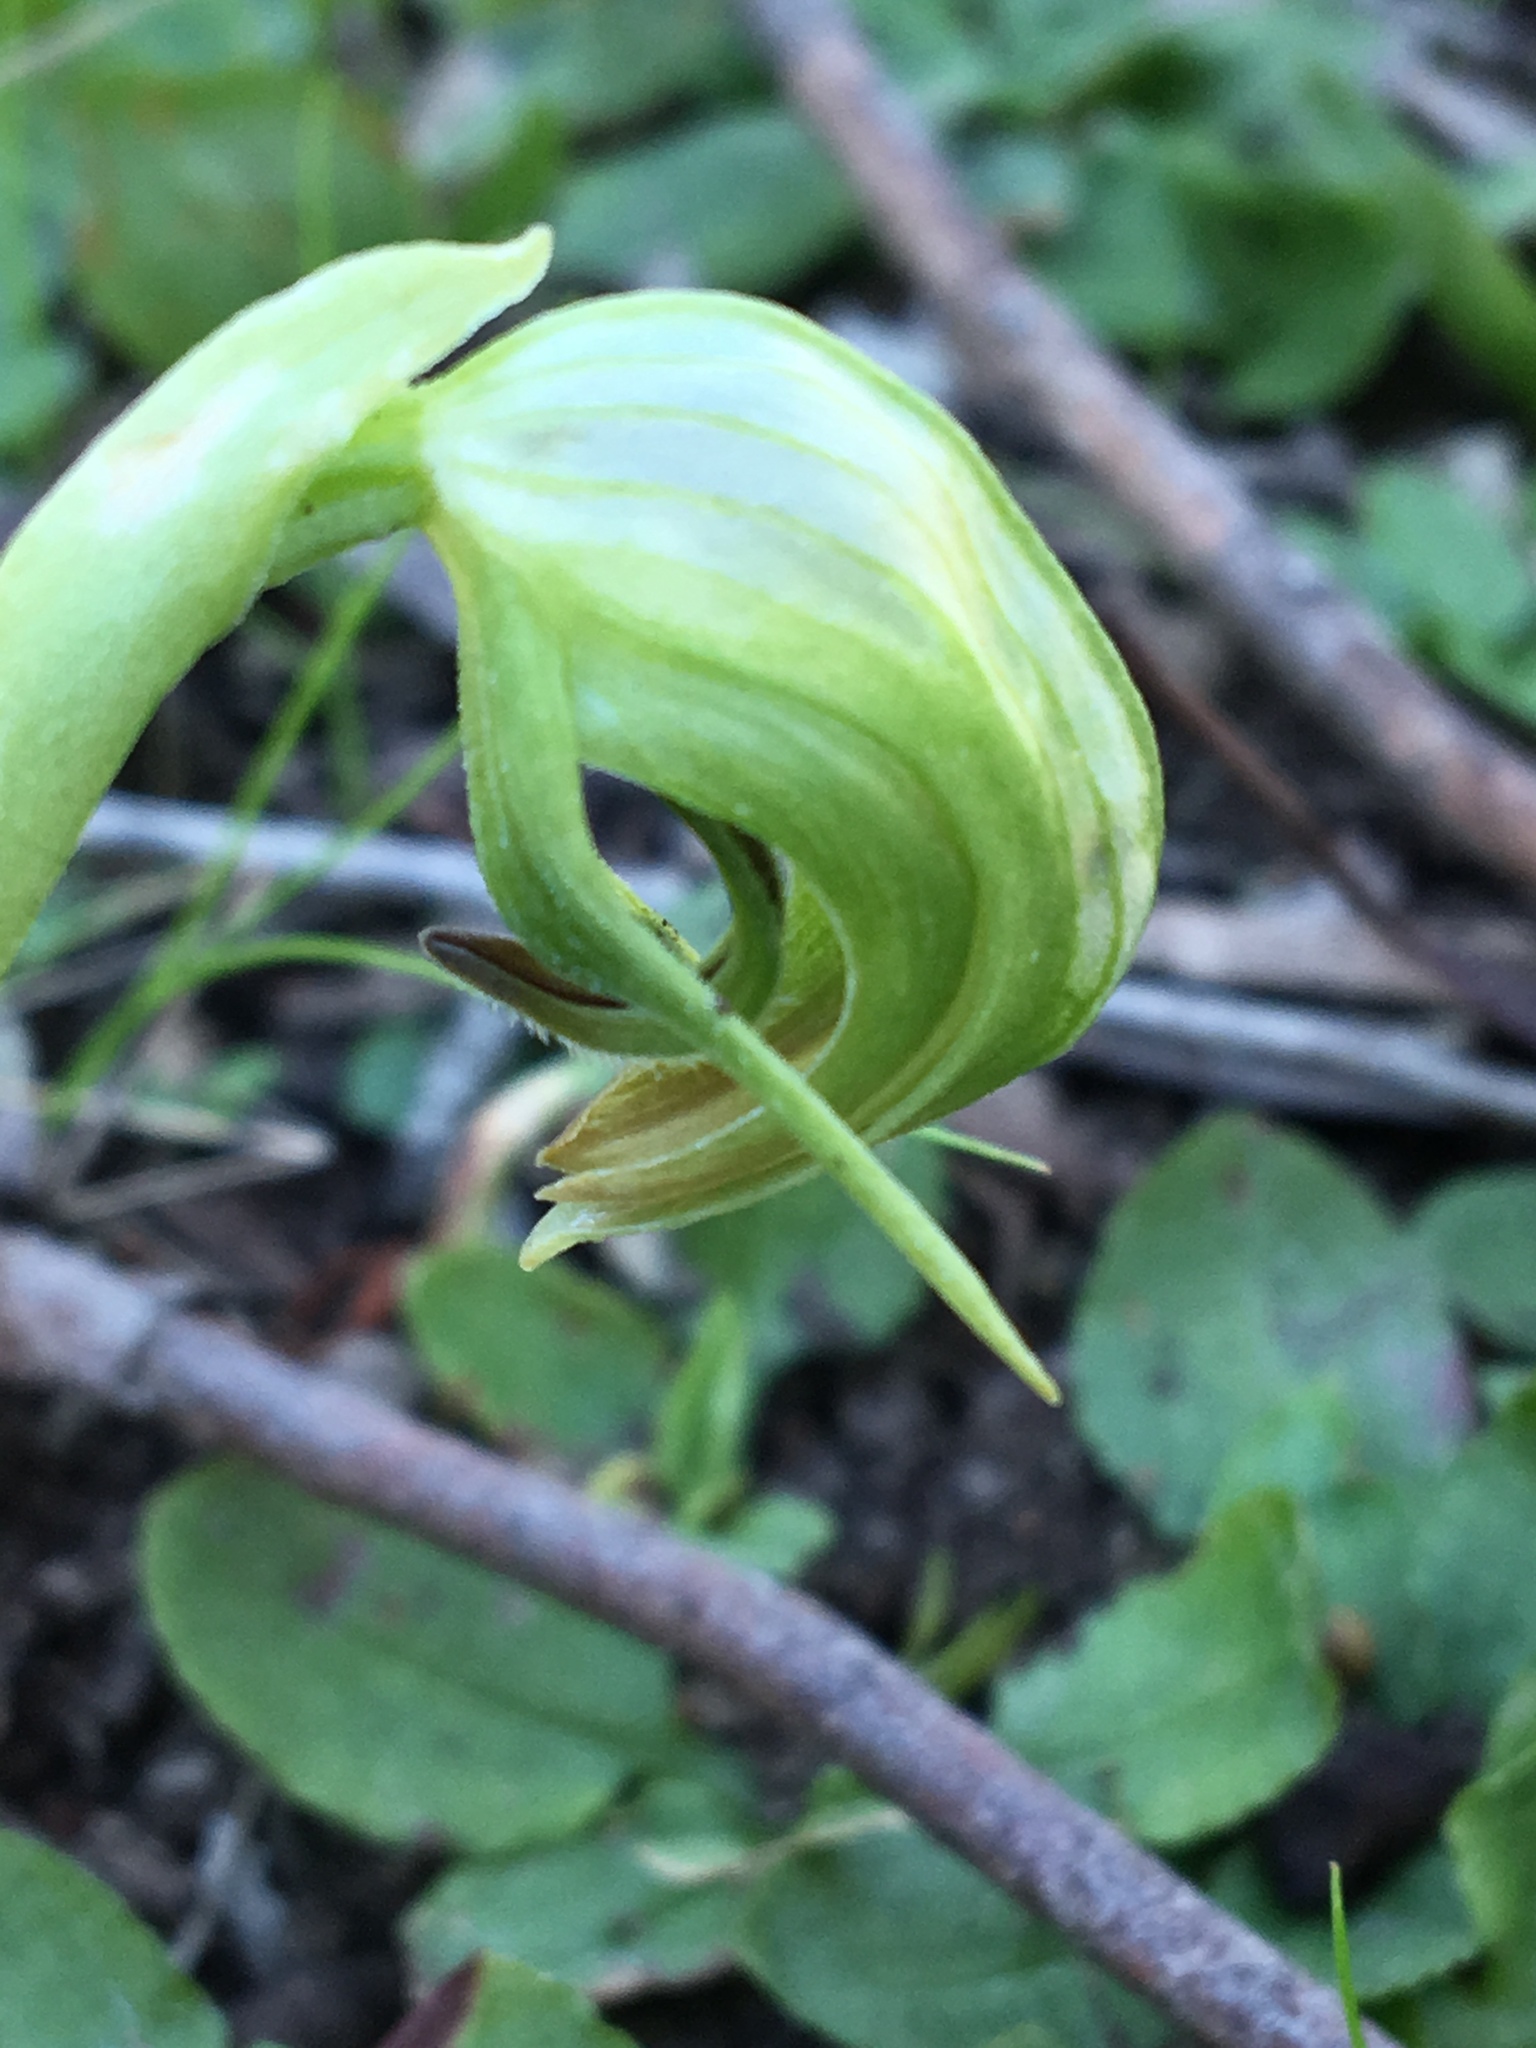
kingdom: Plantae
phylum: Tracheophyta
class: Liliopsida
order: Asparagales
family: Orchidaceae
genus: Pterostylis
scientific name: Pterostylis nutans
